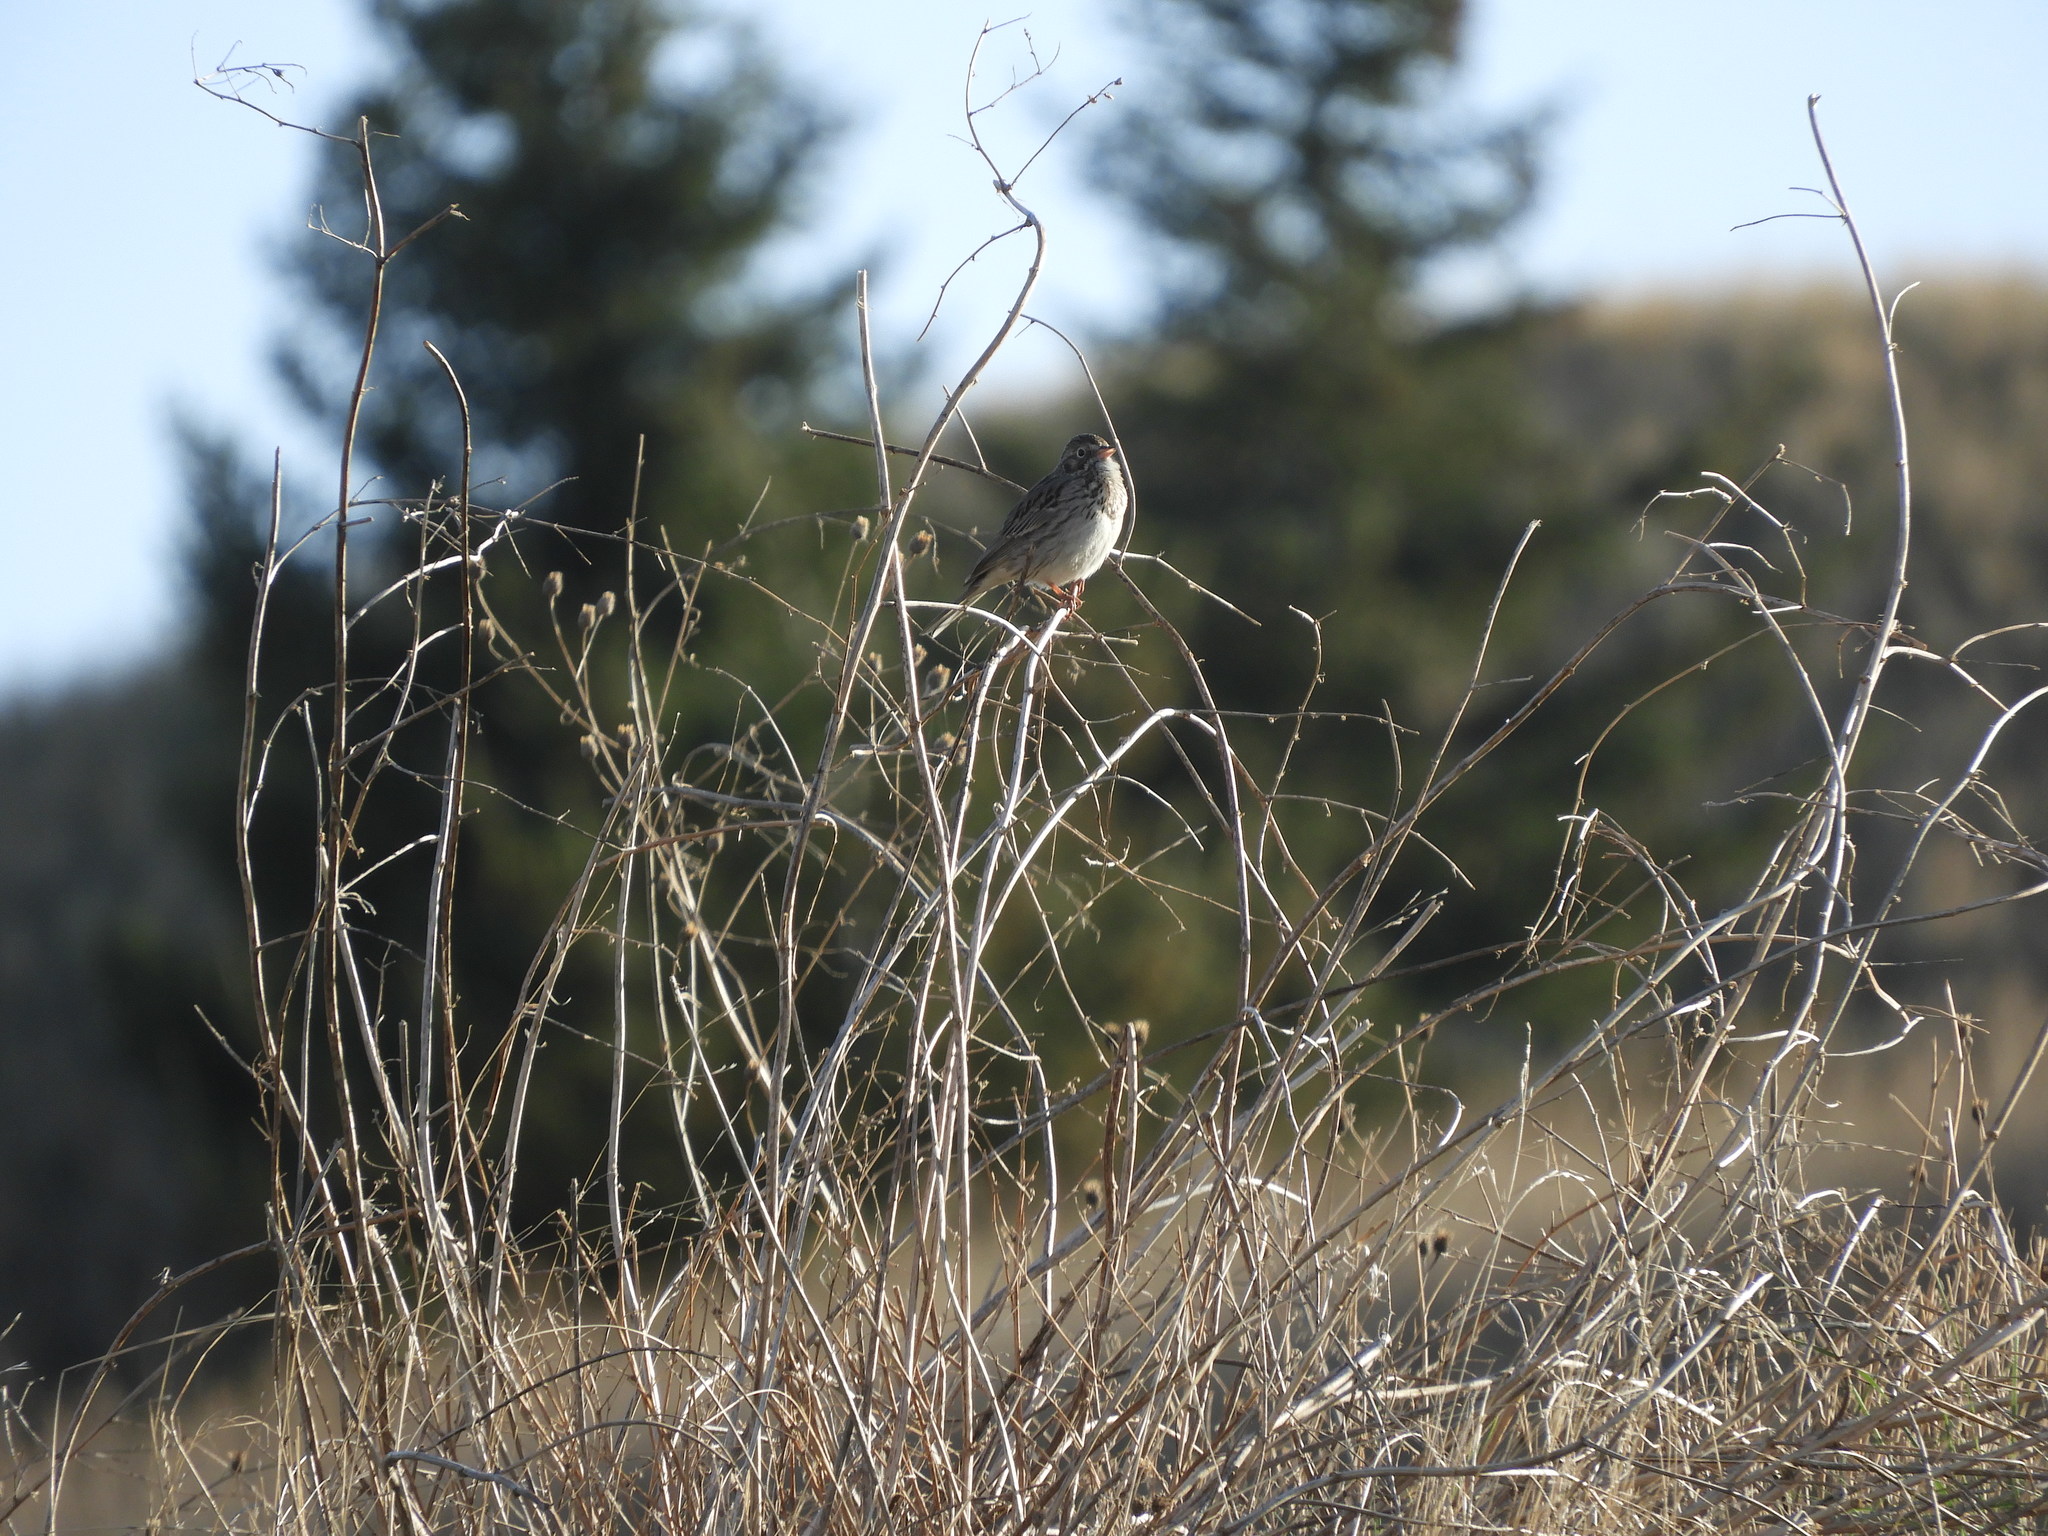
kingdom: Animalia
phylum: Chordata
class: Aves
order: Passeriformes
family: Passerellidae
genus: Pooecetes
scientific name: Pooecetes gramineus
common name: Vesper sparrow
